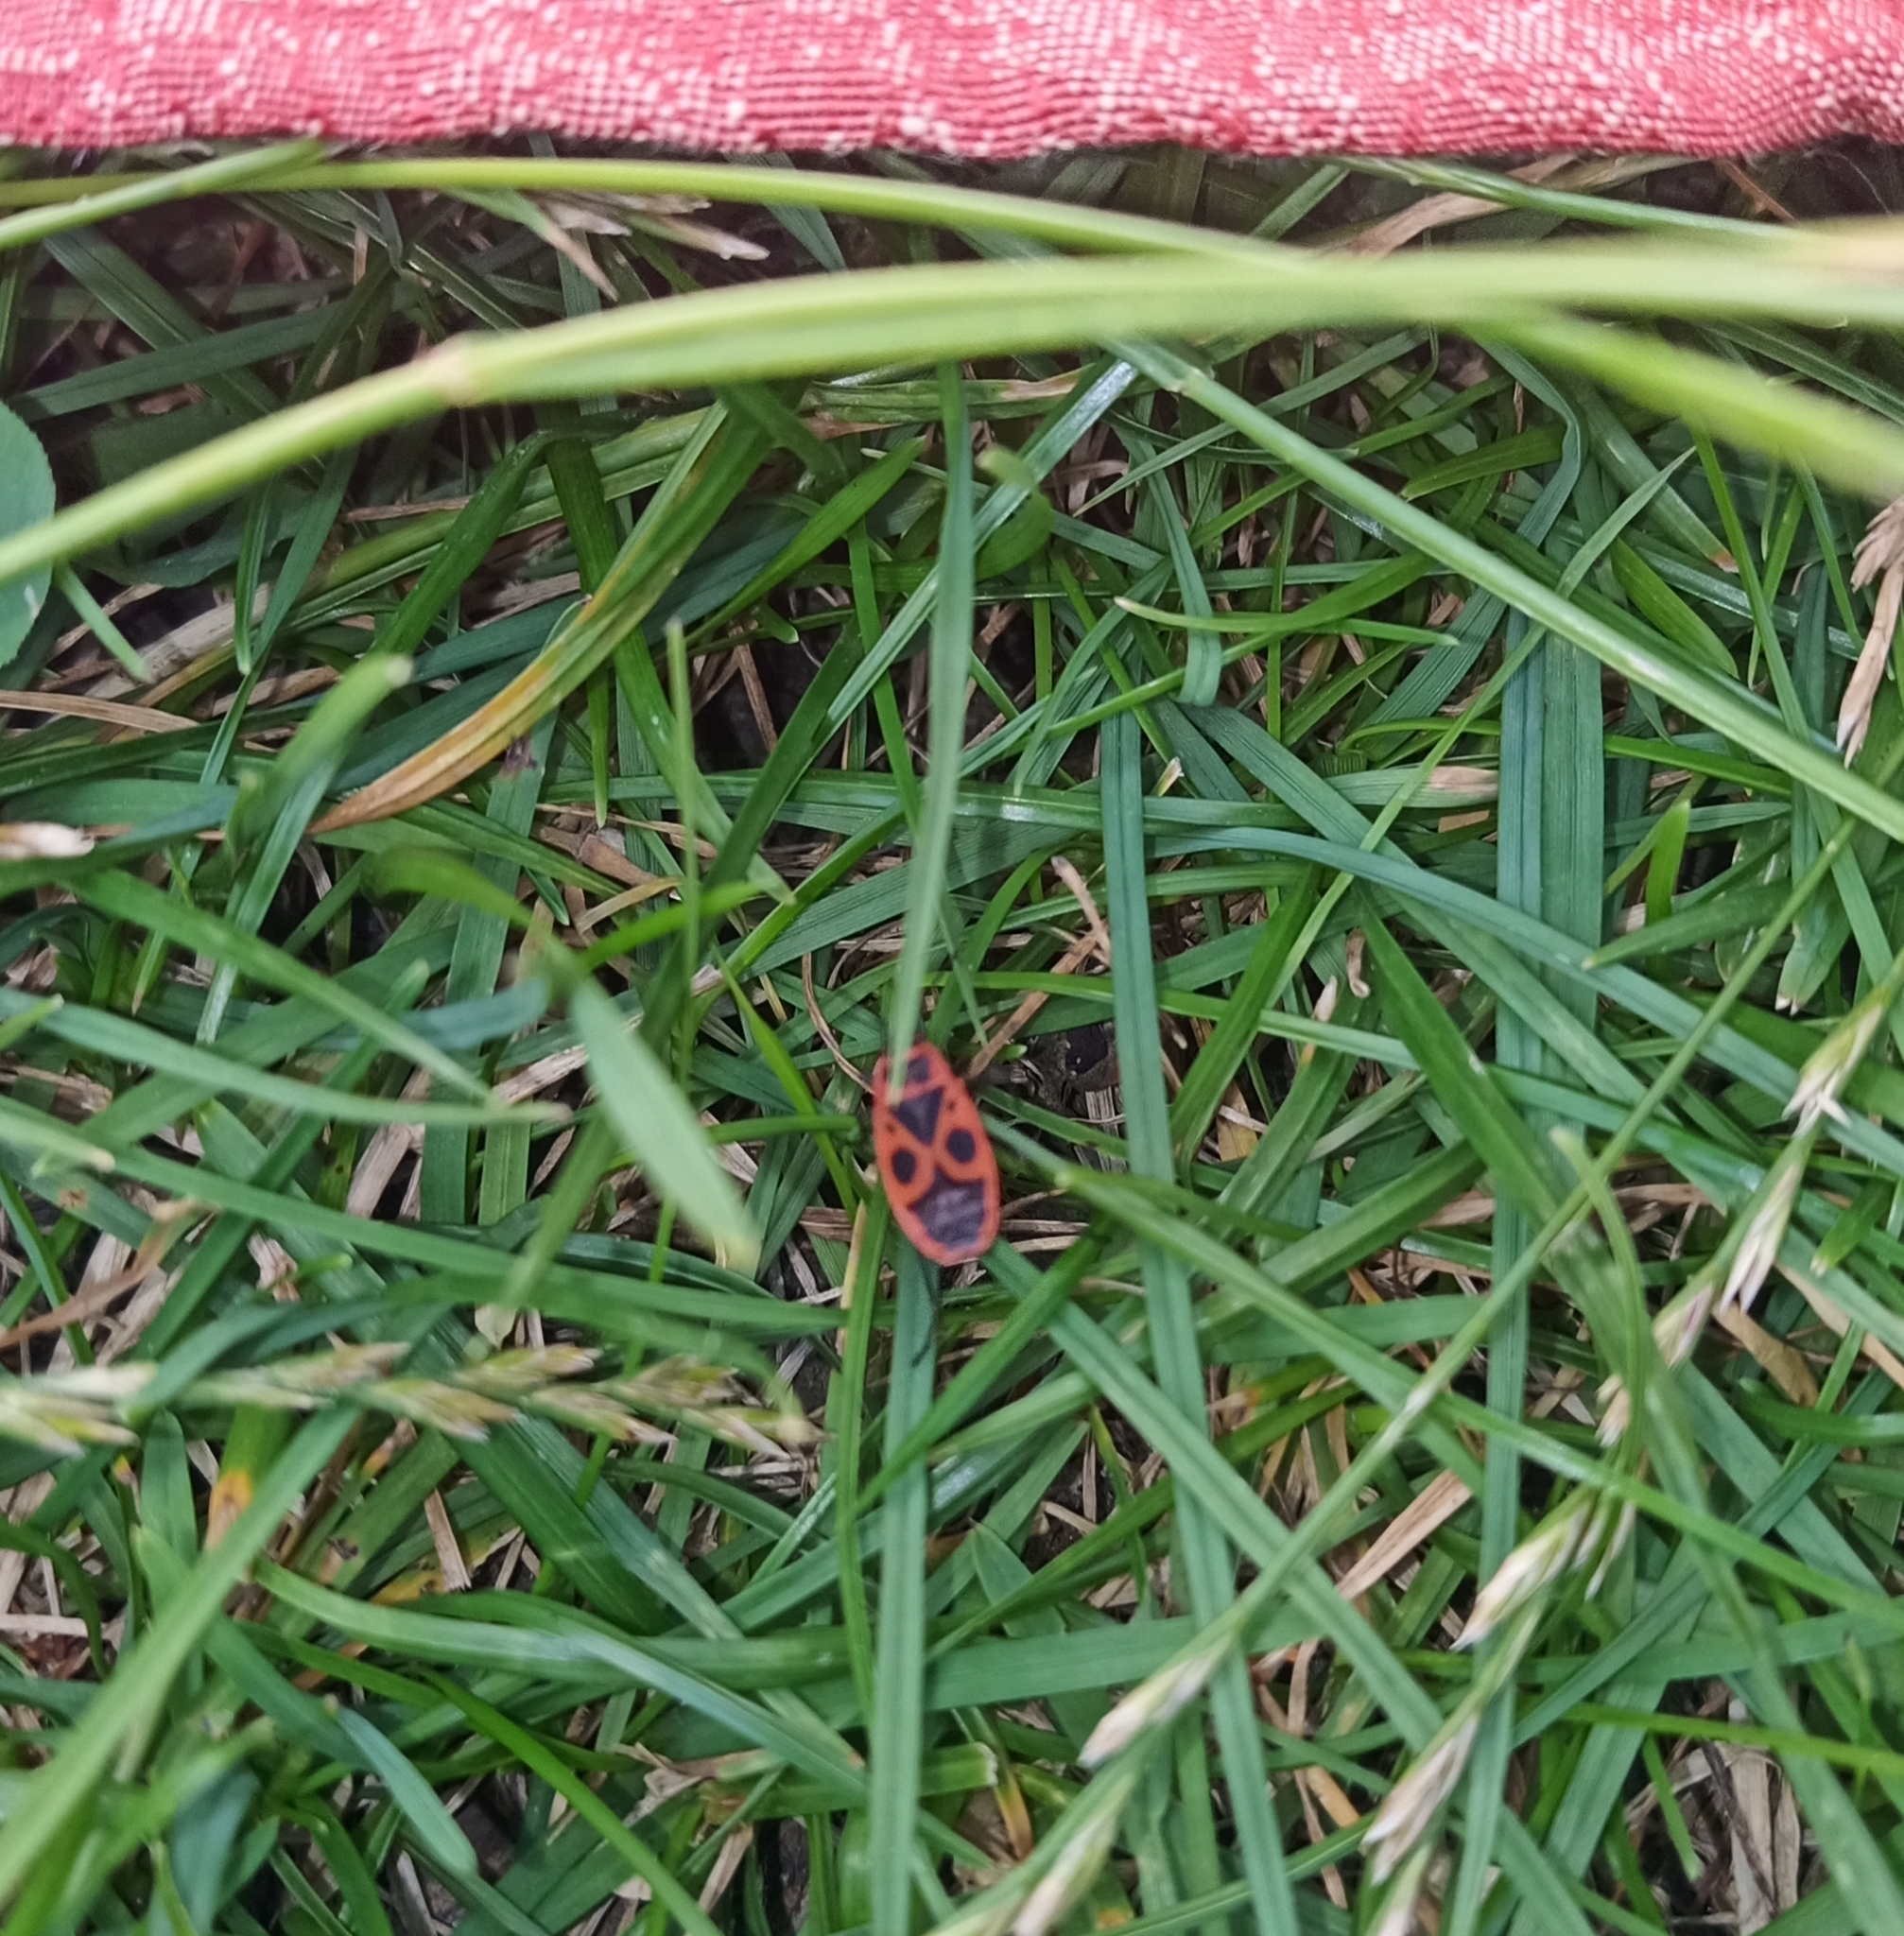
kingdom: Animalia
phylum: Arthropoda
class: Insecta
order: Hemiptera
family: Pyrrhocoridae
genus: Pyrrhocoris
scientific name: Pyrrhocoris apterus
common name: Firebug
